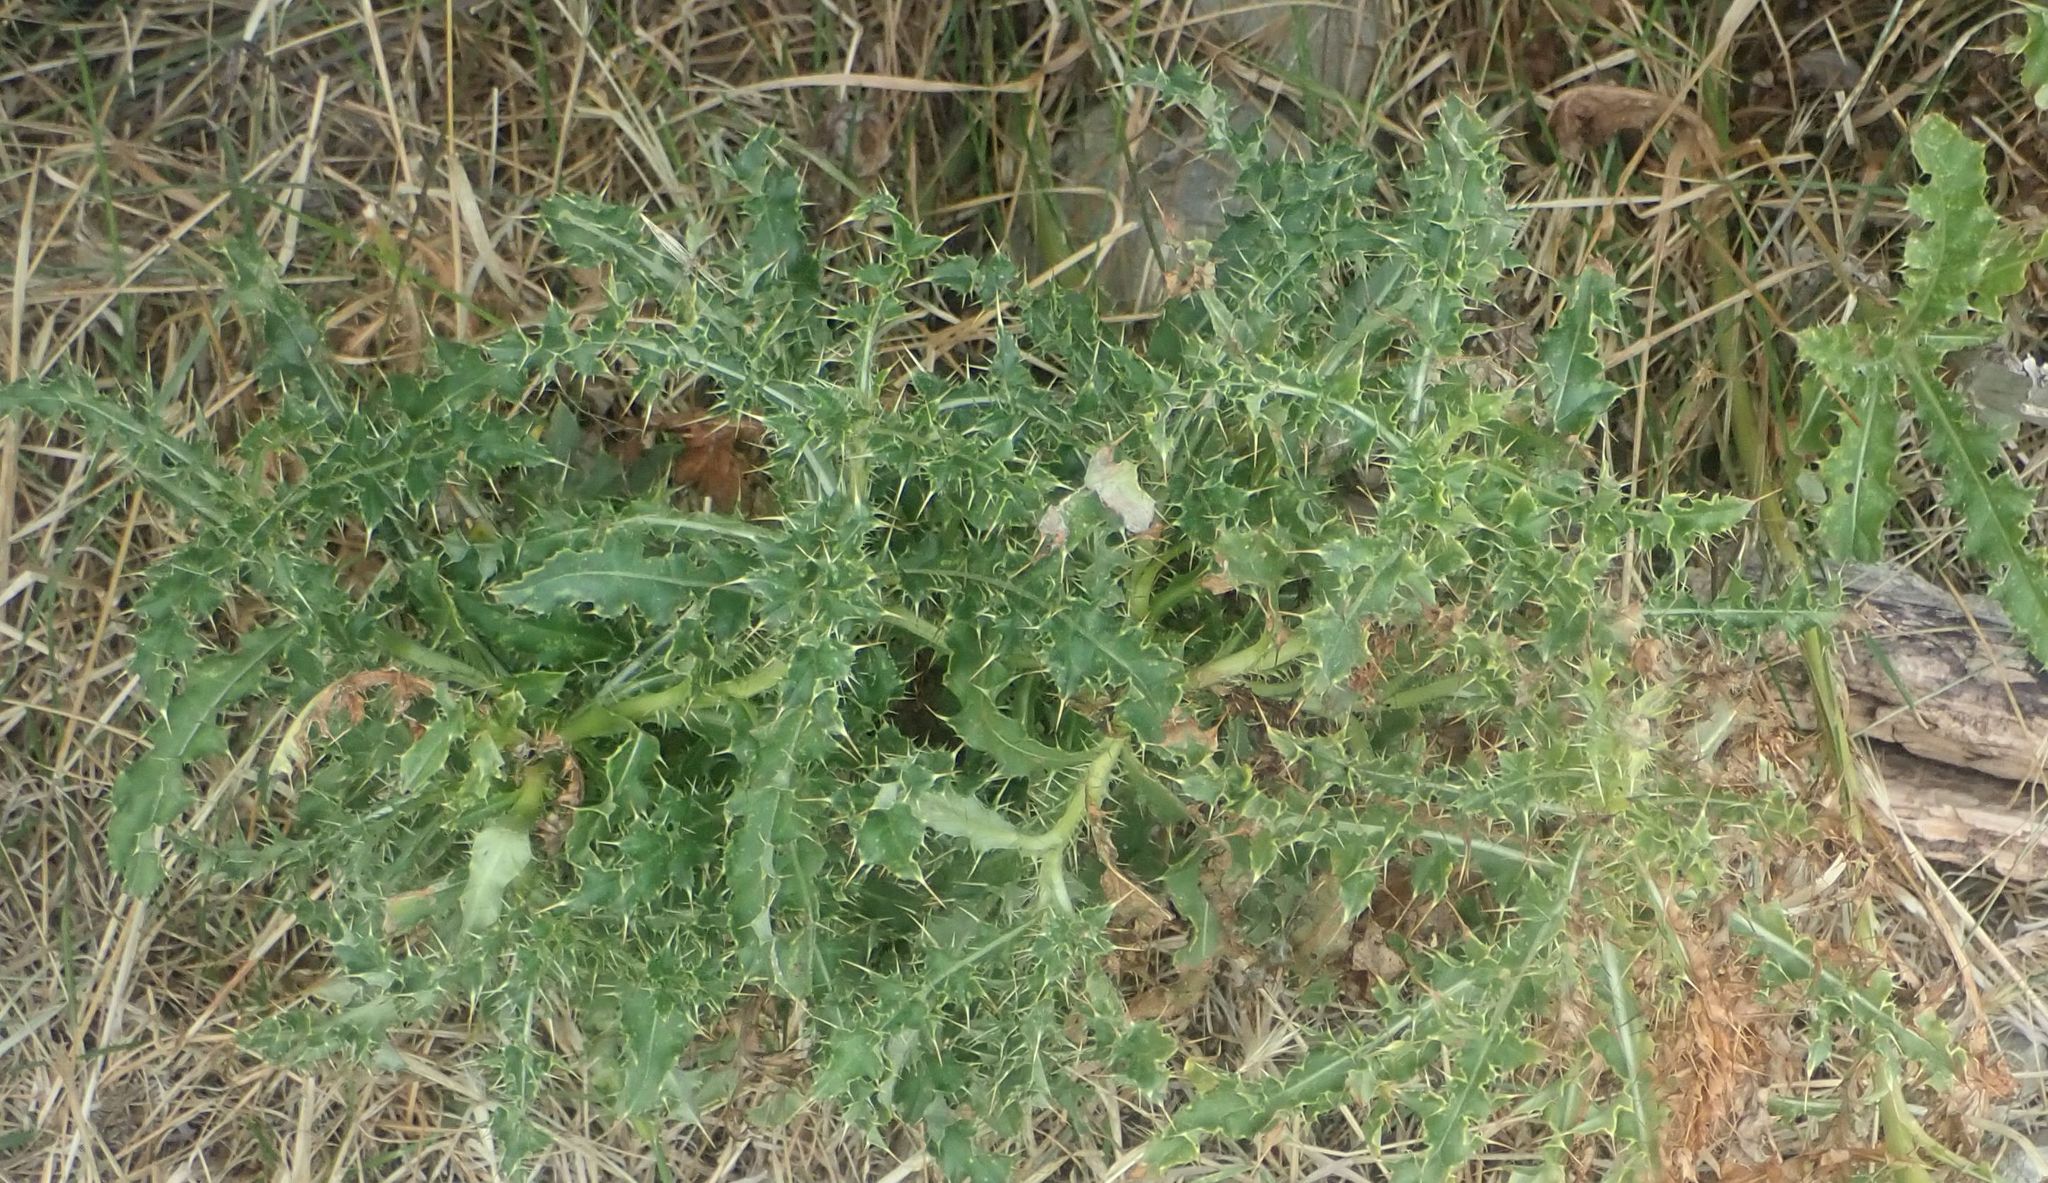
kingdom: Plantae
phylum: Tracheophyta
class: Magnoliopsida
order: Asterales
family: Asteraceae
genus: Cirsium
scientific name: Cirsium arvense
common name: Creeping thistle
